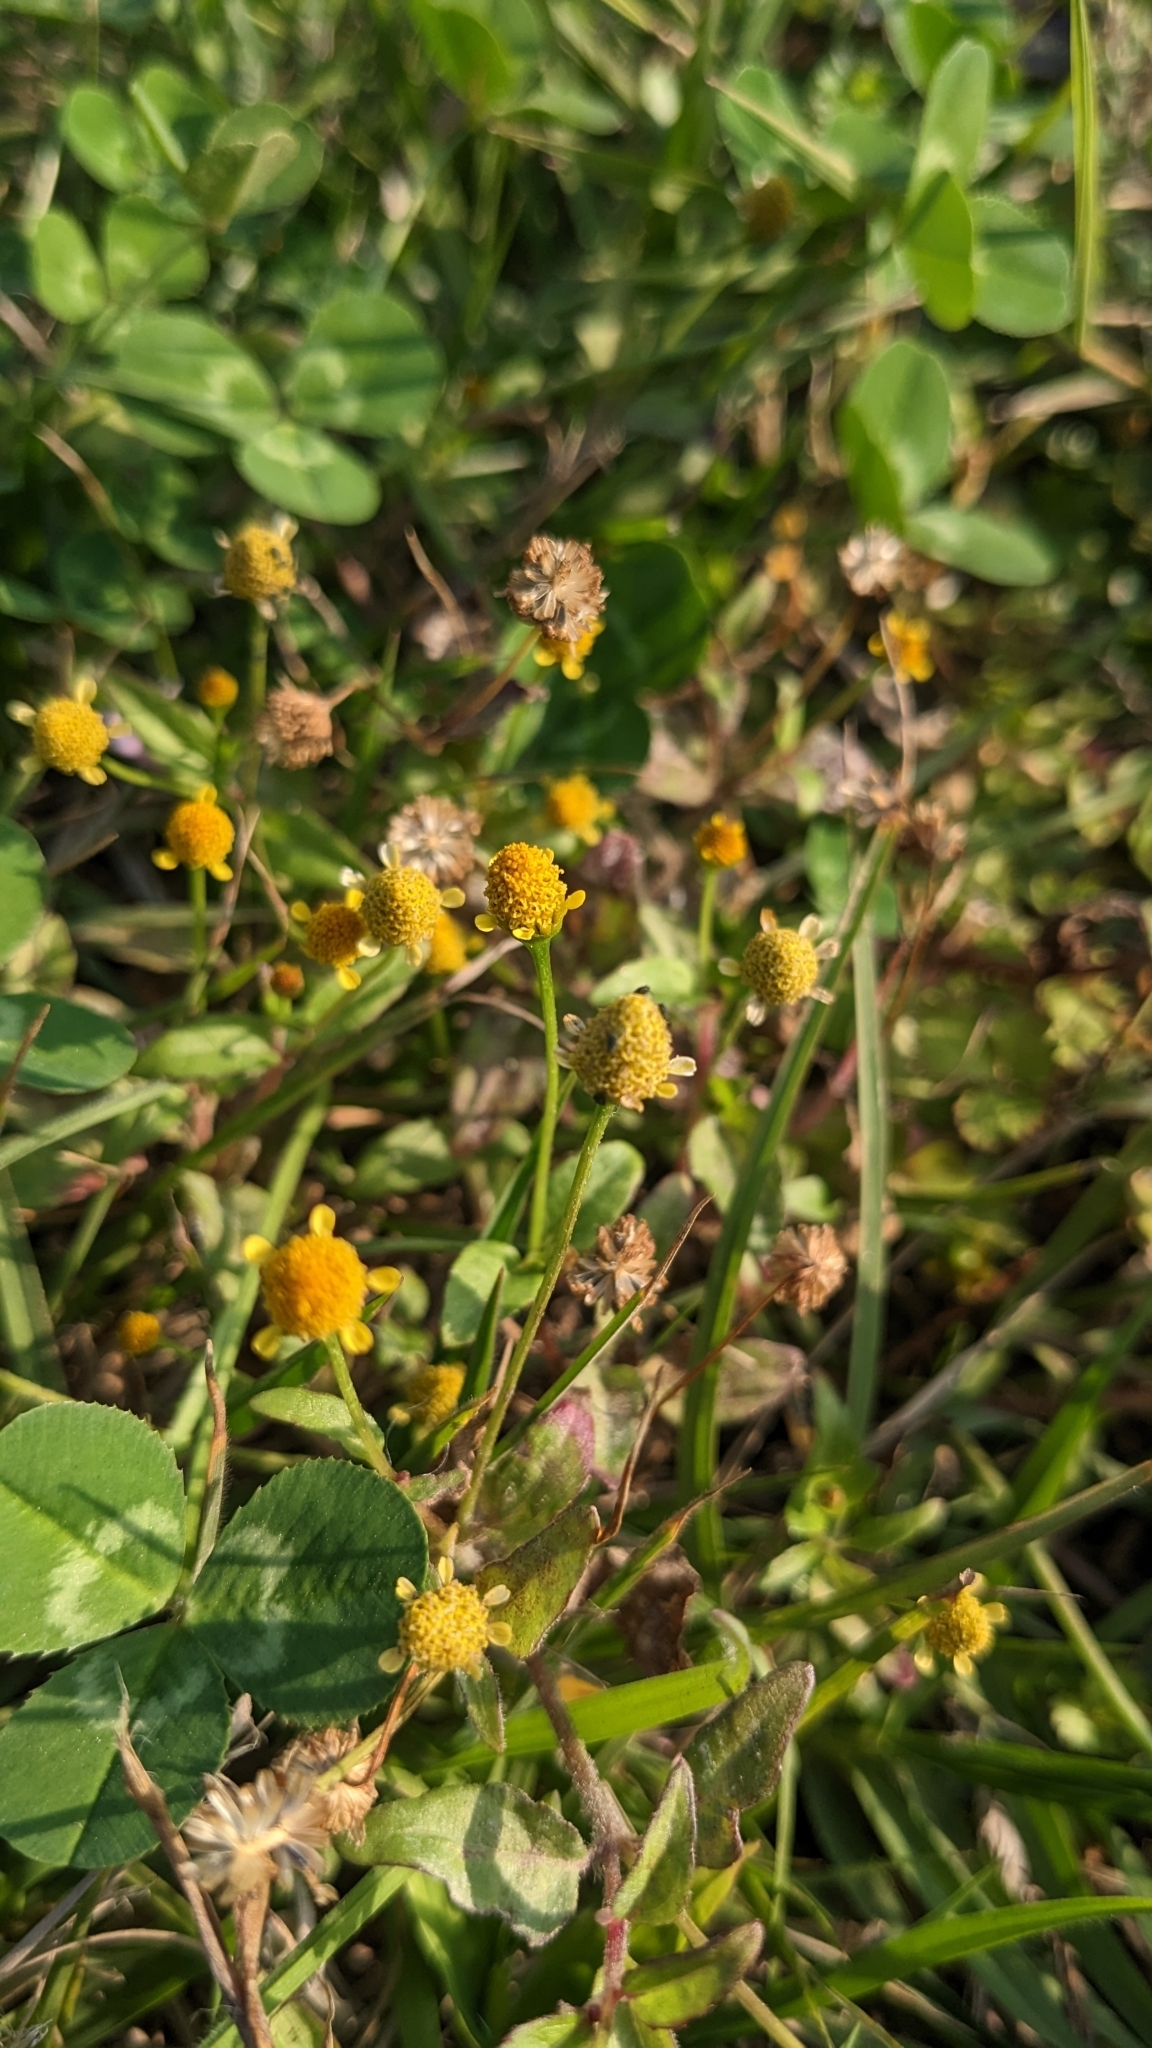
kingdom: Plantae
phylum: Tracheophyta
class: Magnoliopsida
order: Asterales
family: Asteraceae
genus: Acmella
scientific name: Acmella uliginosa
